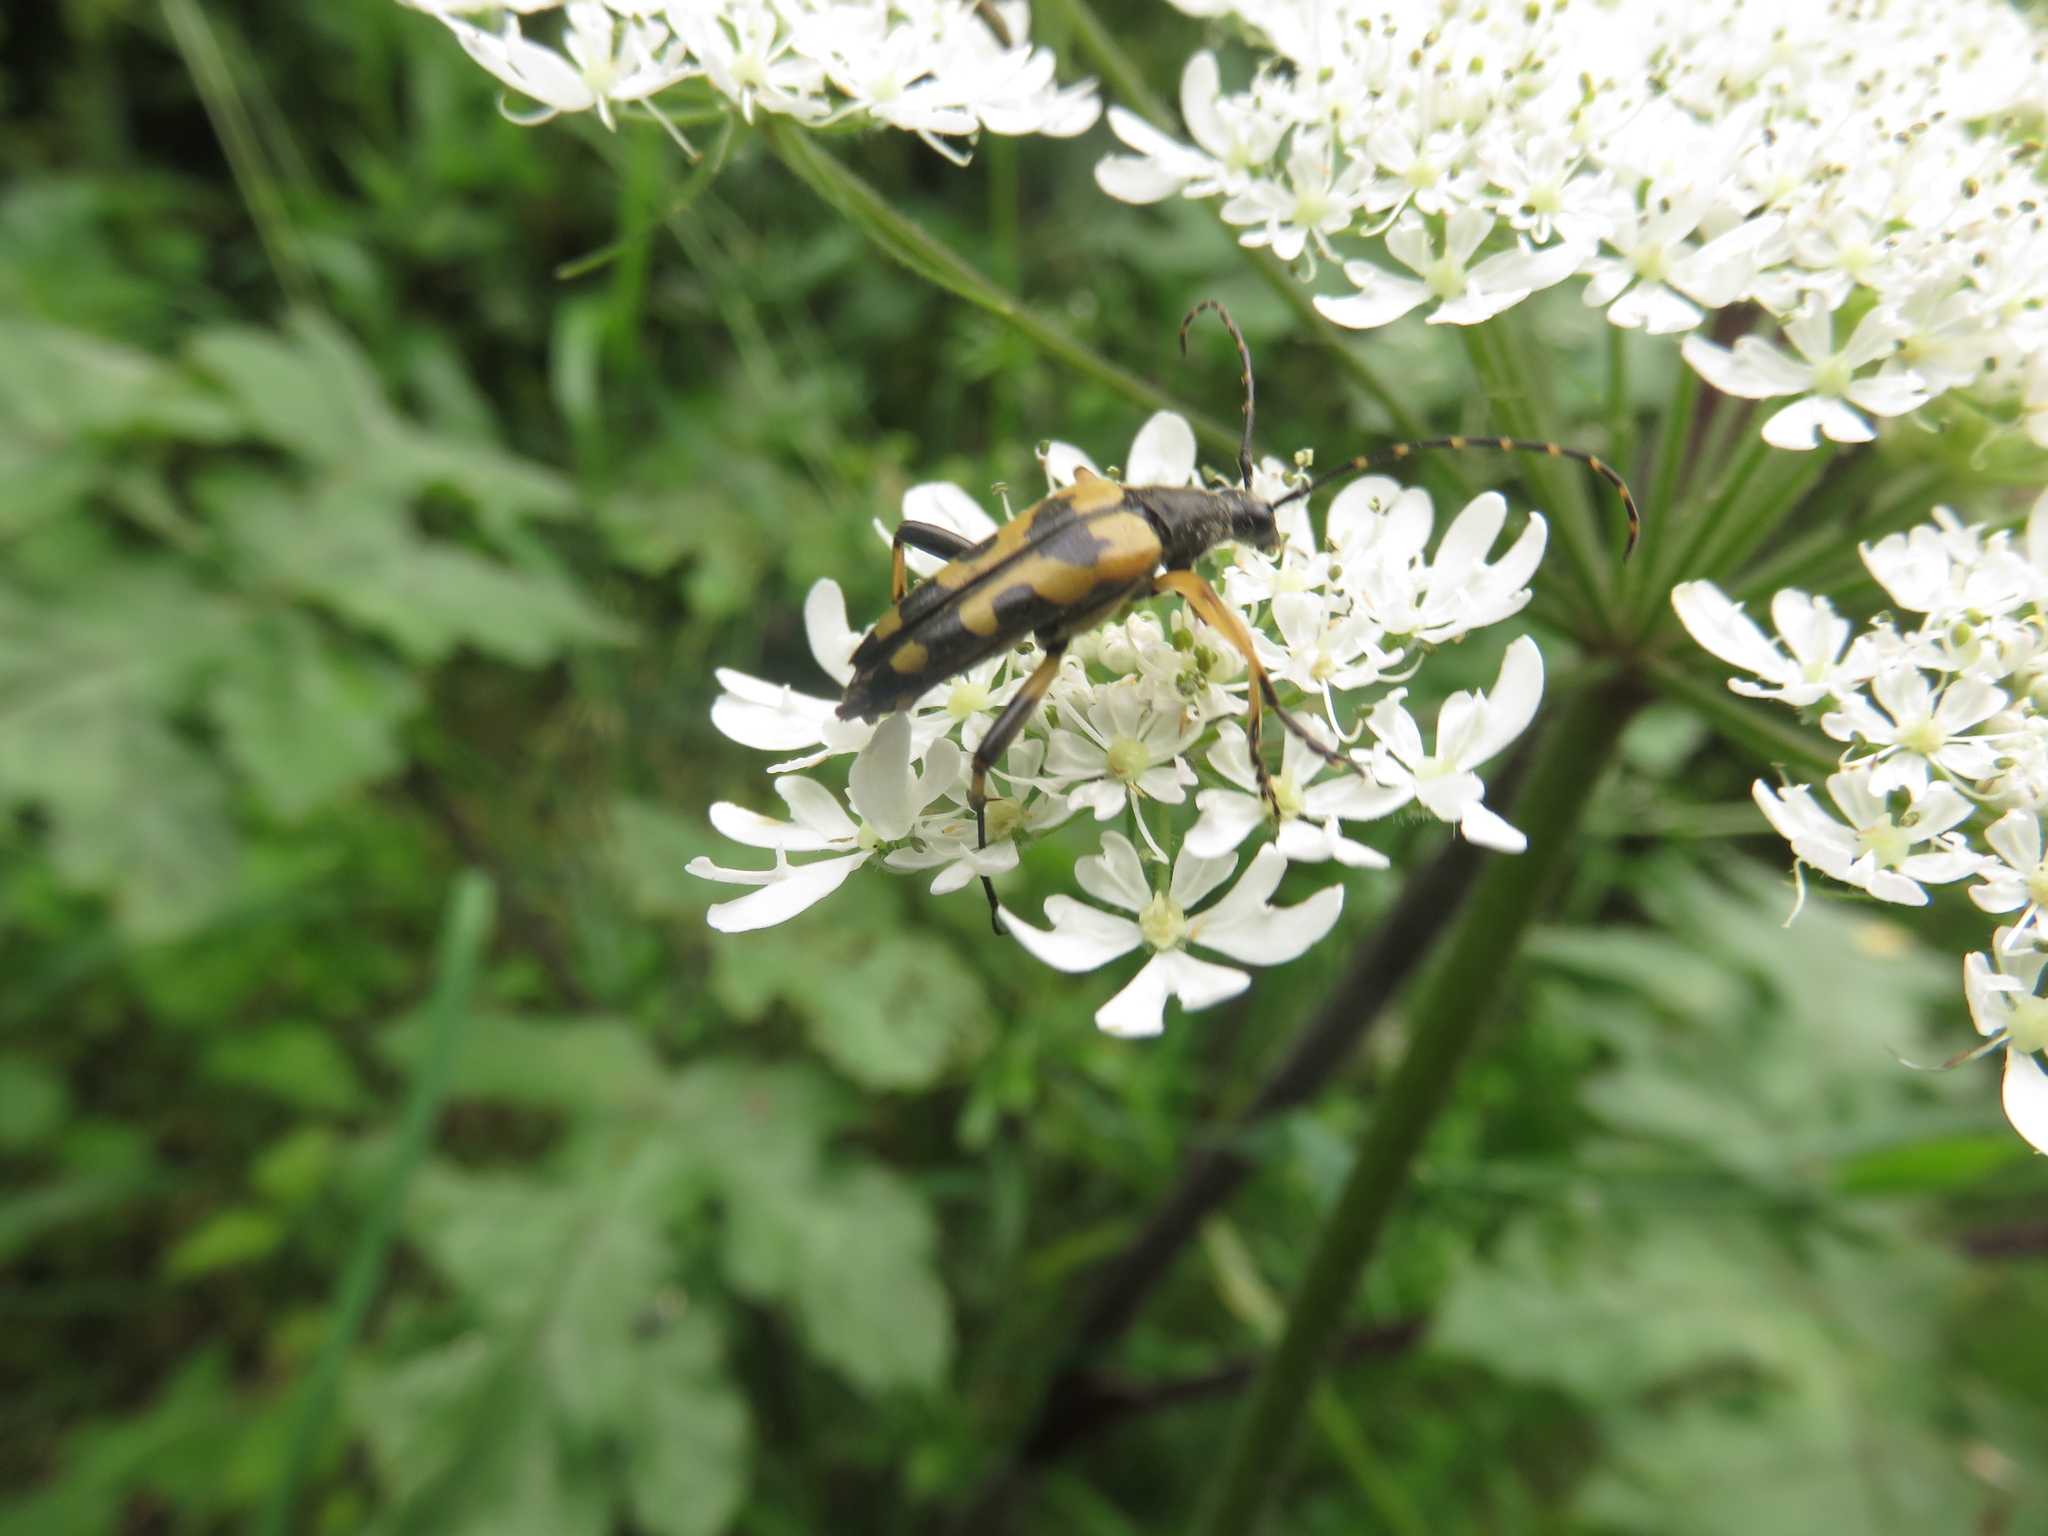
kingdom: Animalia
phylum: Arthropoda
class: Insecta
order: Coleoptera
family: Cerambycidae
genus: Rutpela
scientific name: Rutpela maculata
